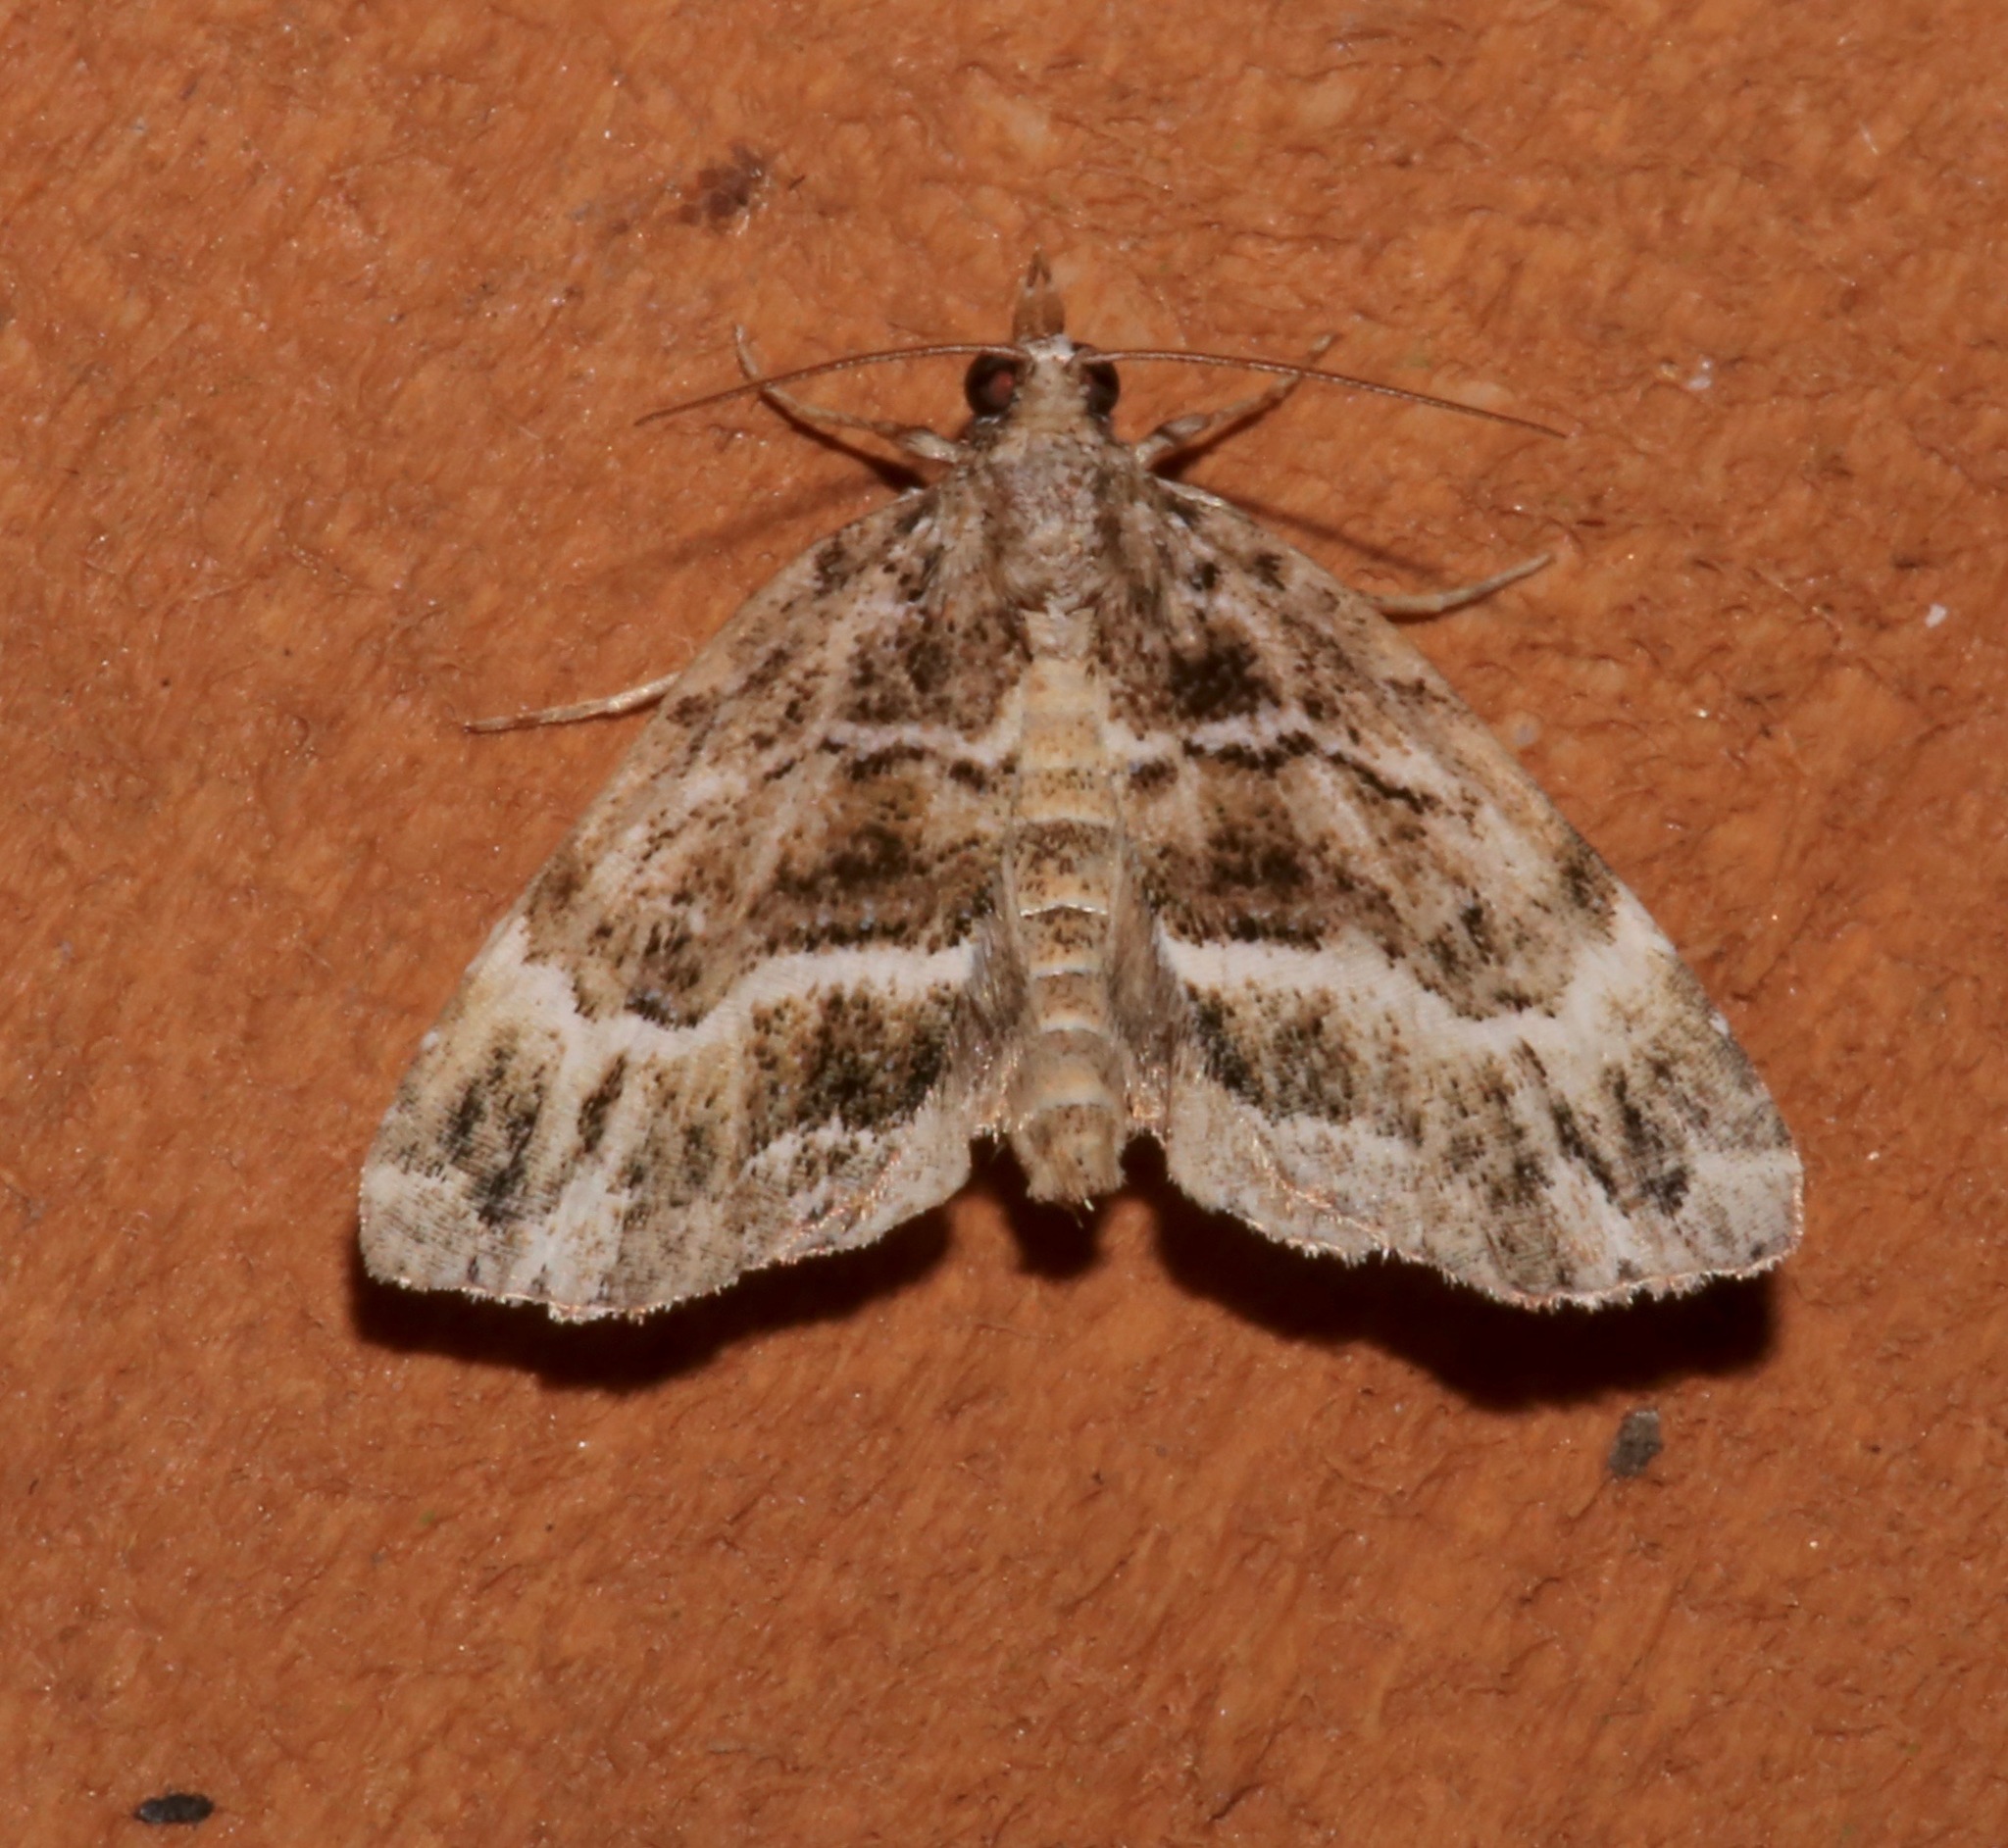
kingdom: Animalia
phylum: Arthropoda
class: Insecta
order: Lepidoptera
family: Erebidae
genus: Cutina
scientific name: Cutina arcuata
